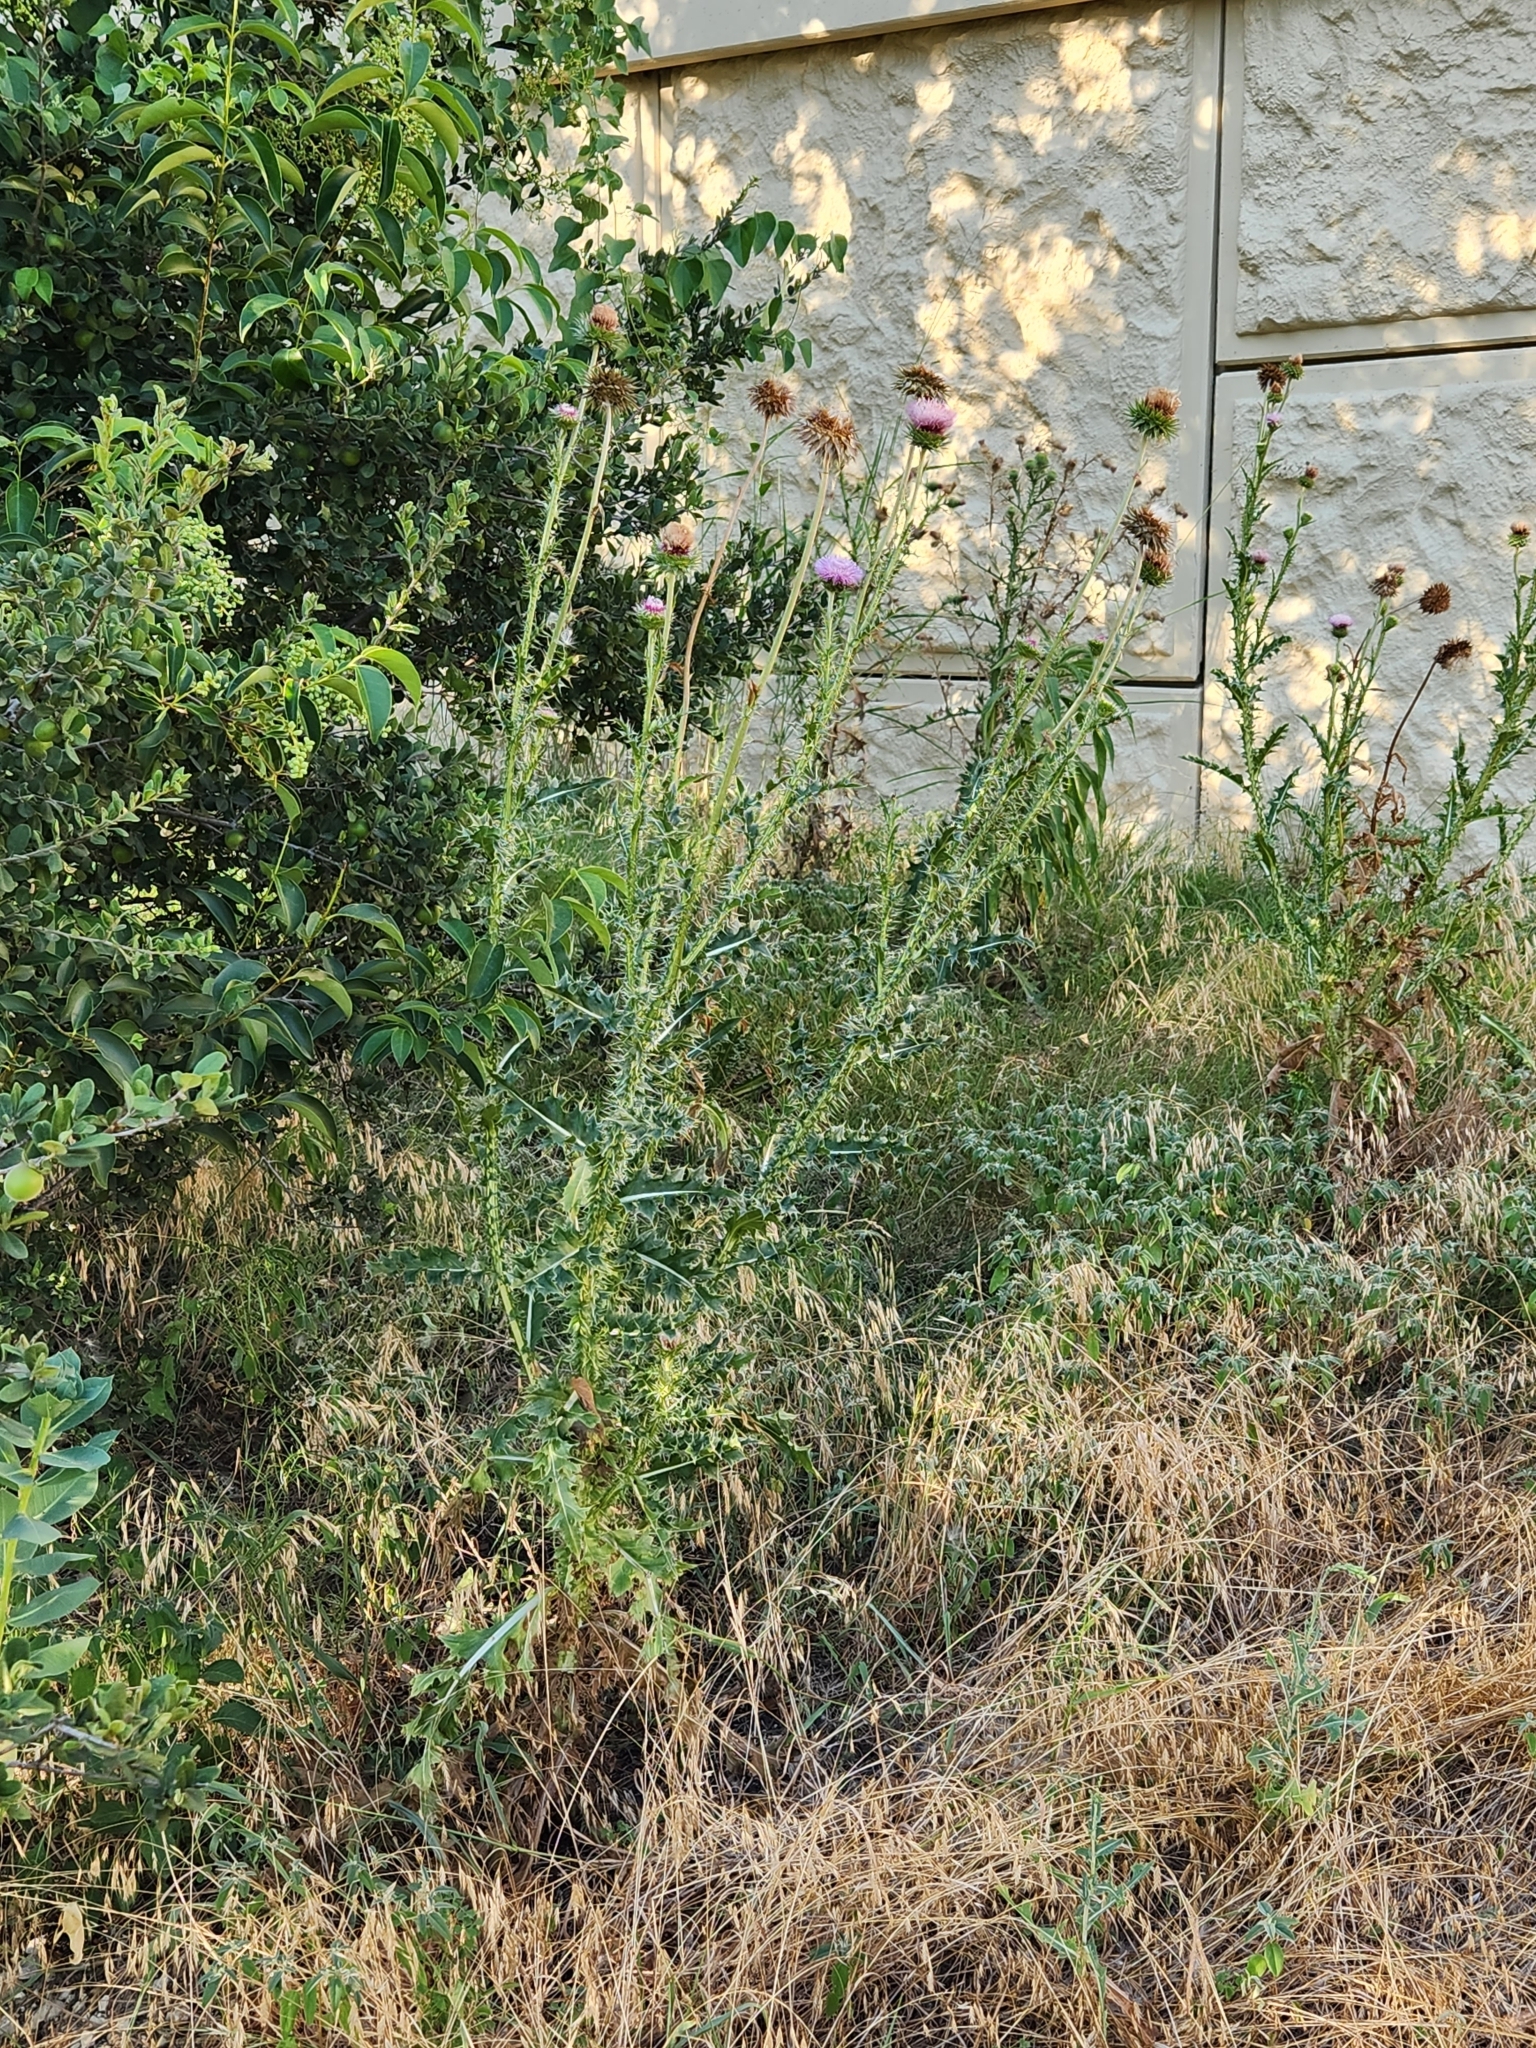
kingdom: Plantae
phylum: Tracheophyta
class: Magnoliopsida
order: Asterales
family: Asteraceae
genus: Carduus
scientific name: Carduus nutans
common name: Musk thistle
